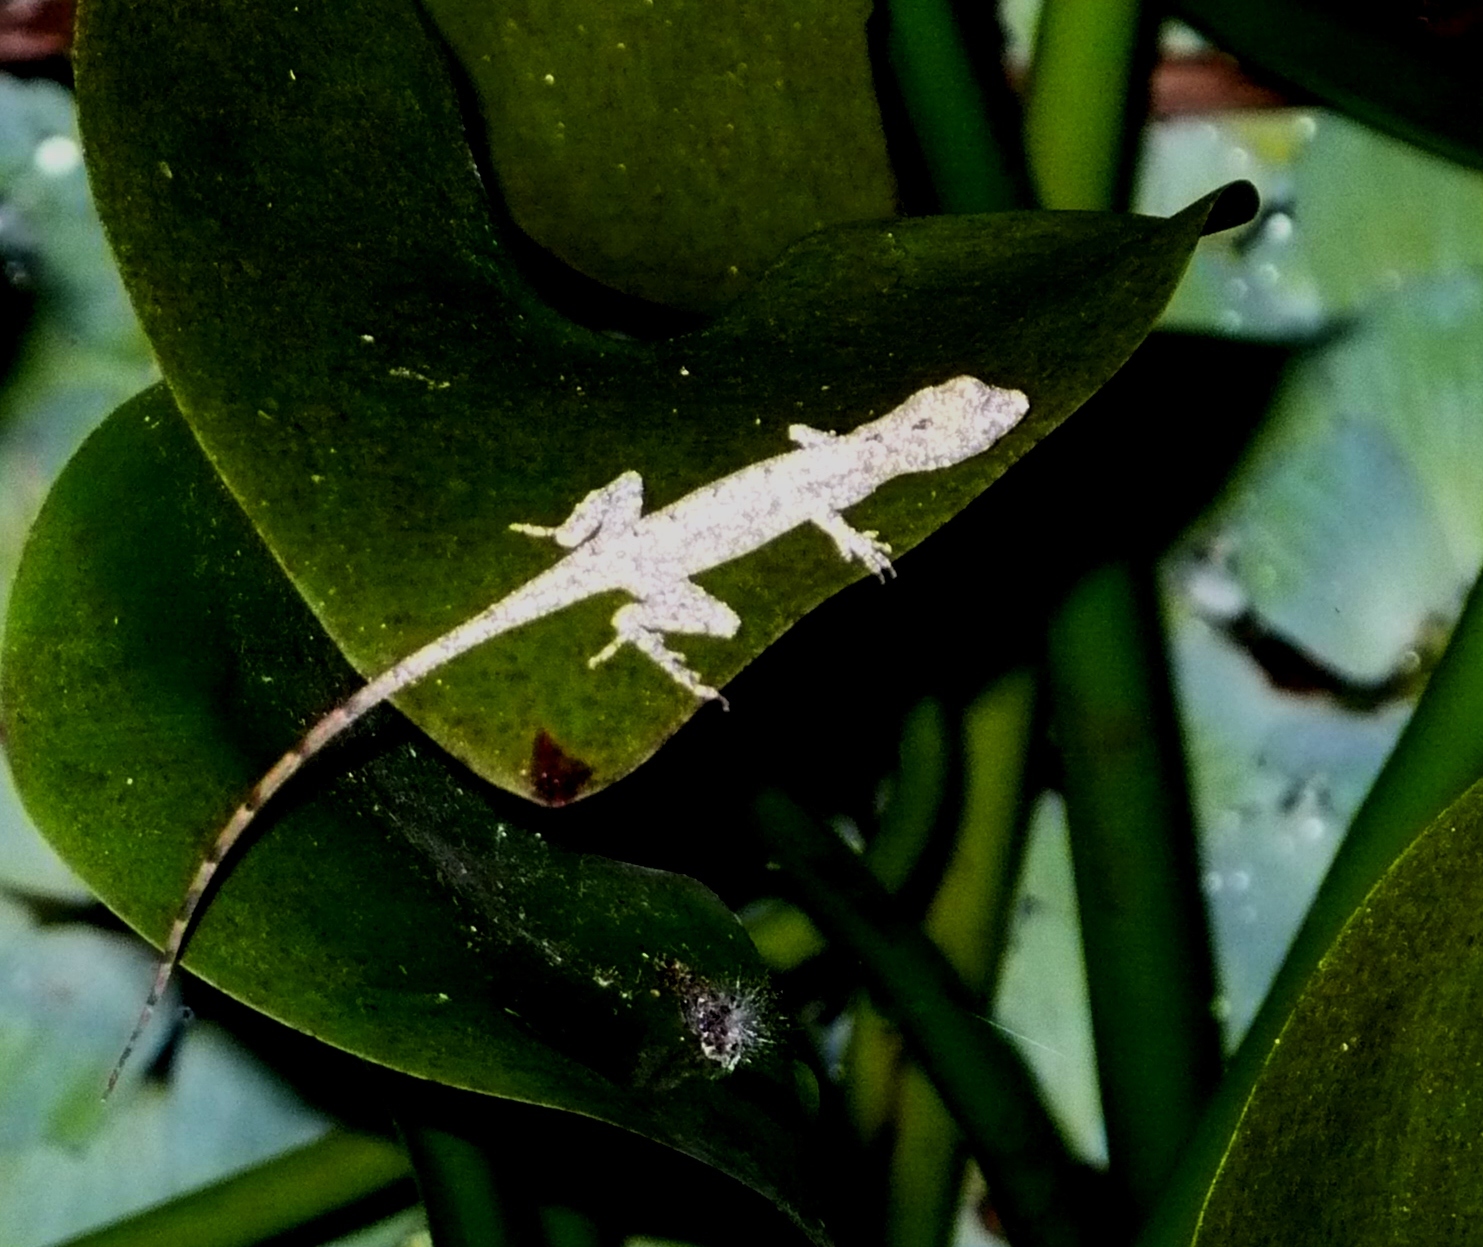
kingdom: Animalia
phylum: Chordata
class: Squamata
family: Dactyloidae
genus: Anolis
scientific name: Anolis limifrons
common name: Border anole
